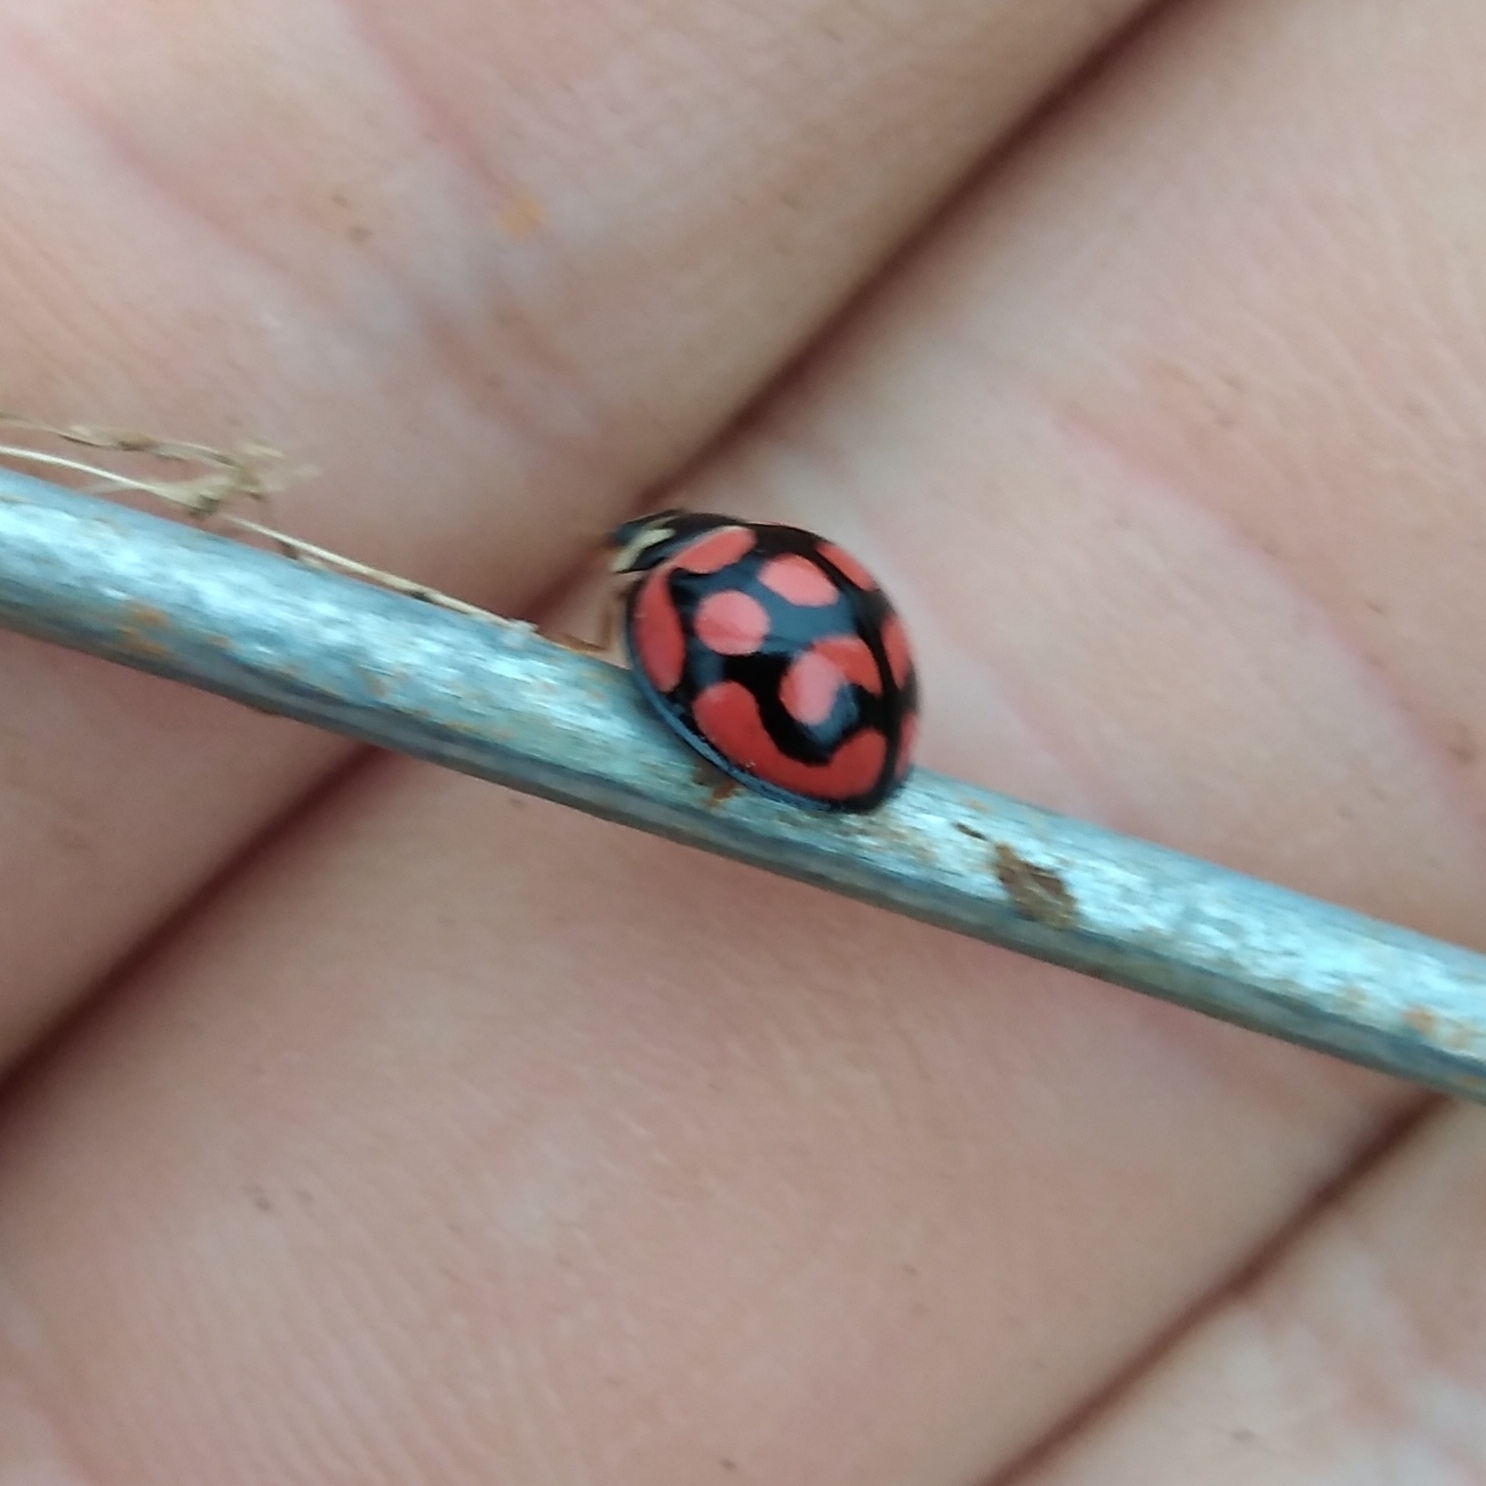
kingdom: Animalia
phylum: Arthropoda
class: Insecta
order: Coleoptera
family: Coccinellidae
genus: Cheilomenes
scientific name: Cheilomenes lunata
